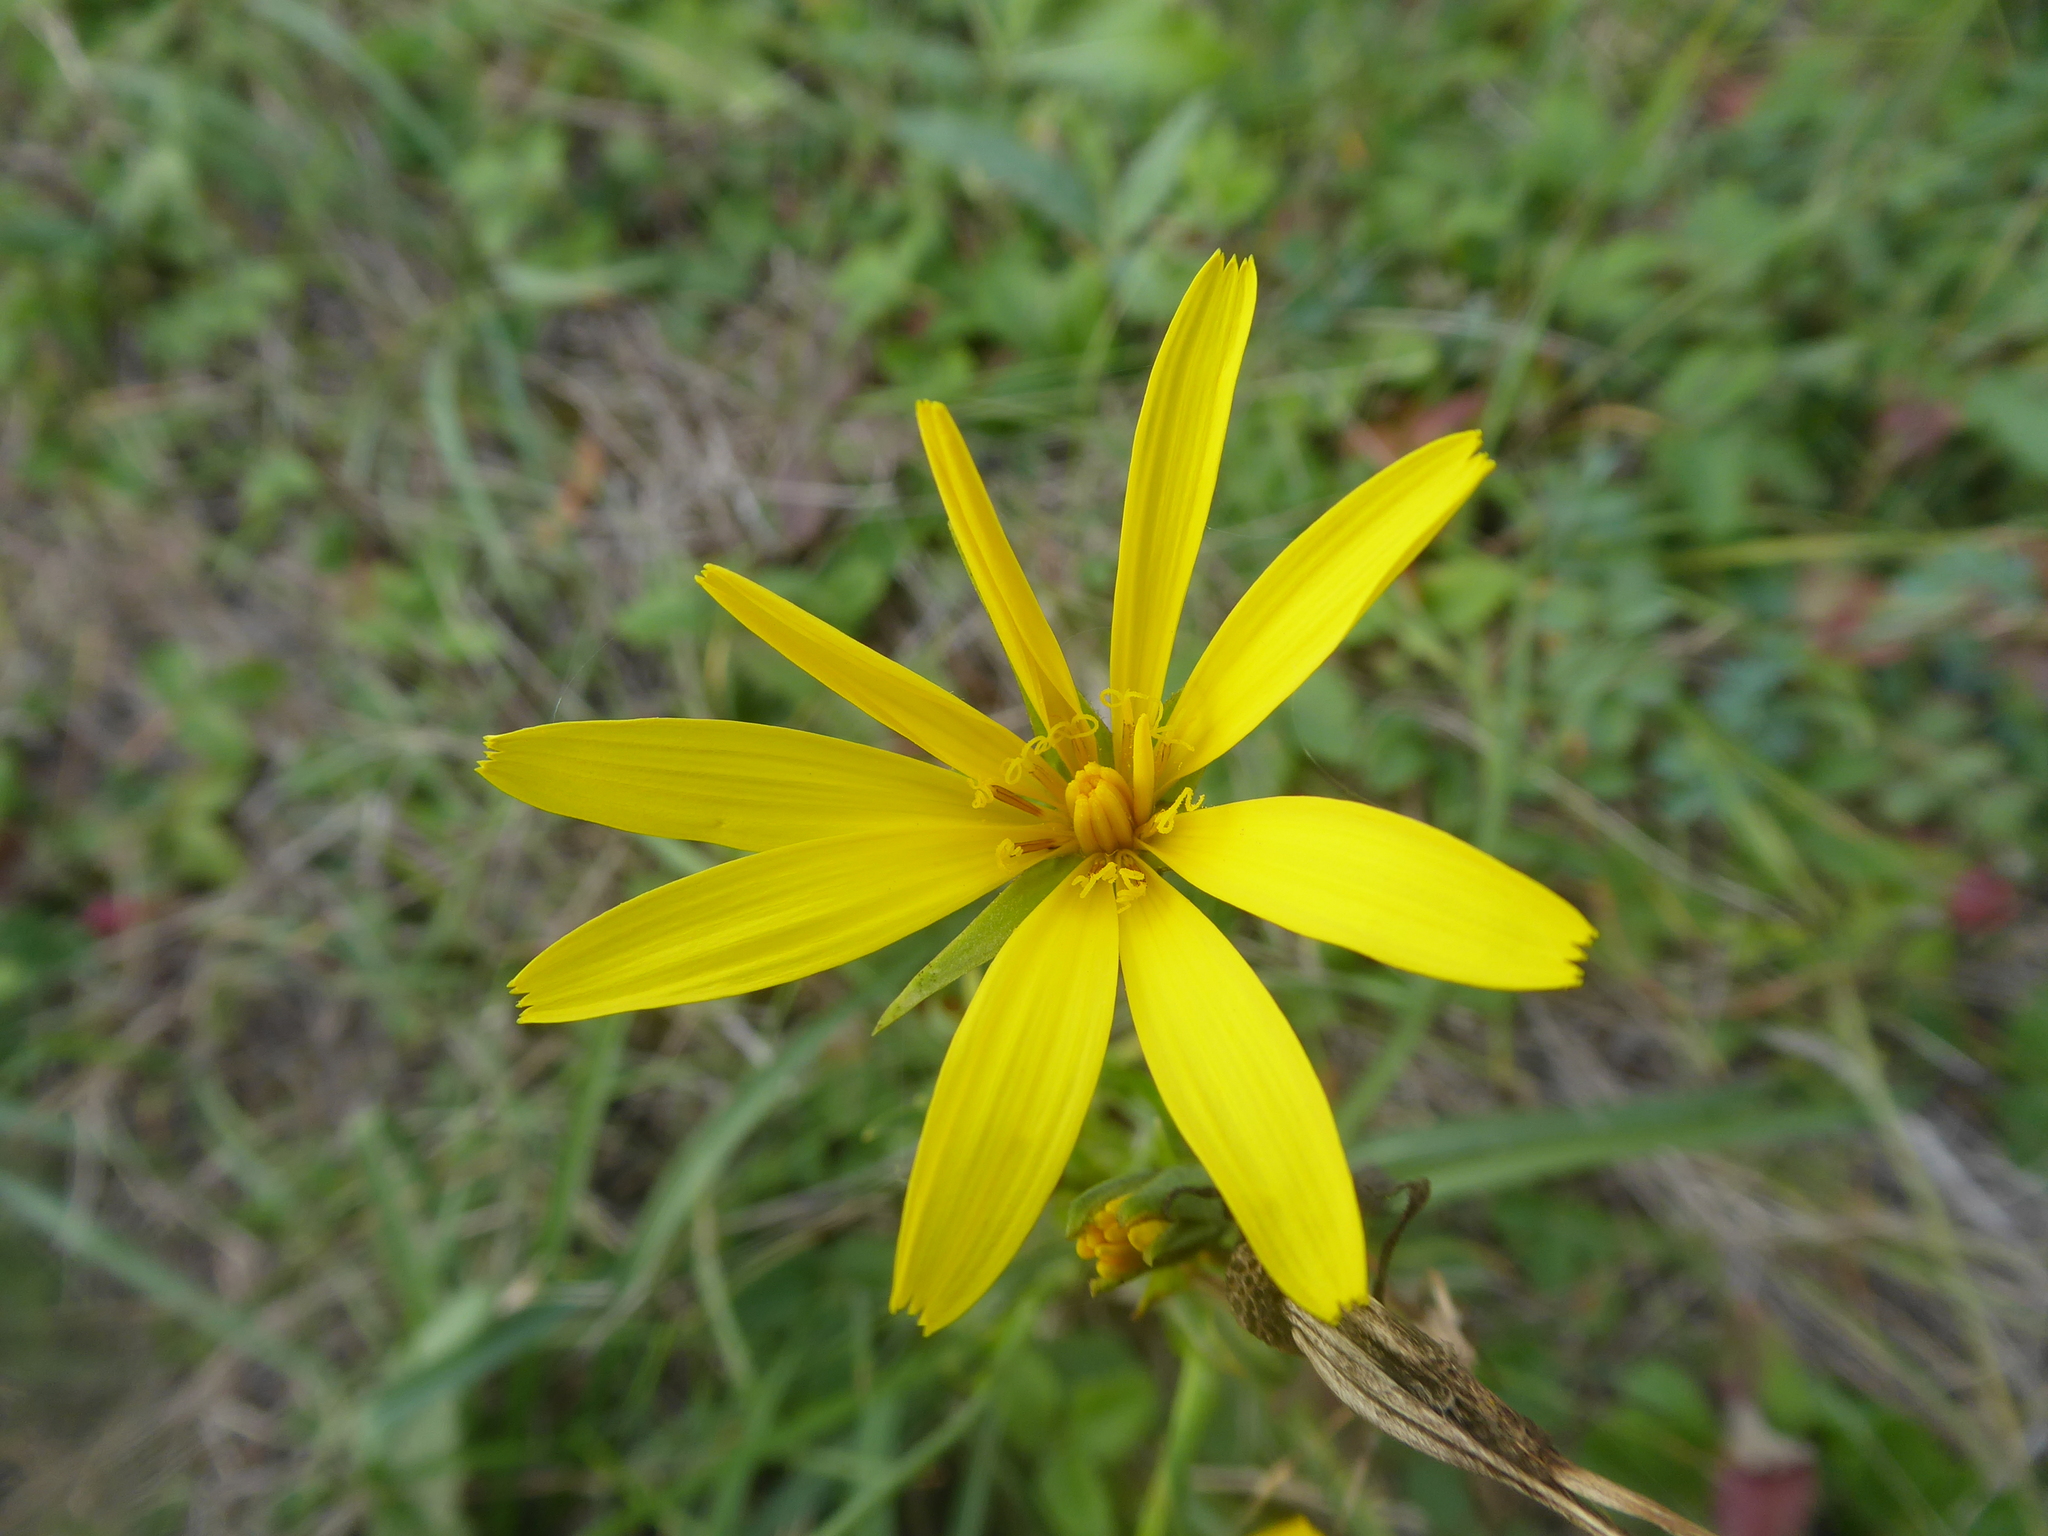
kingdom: Plantae
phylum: Tracheophyta
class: Magnoliopsida
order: Asterales
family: Asteraceae
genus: Tragopogon
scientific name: Tragopogon orientalis
